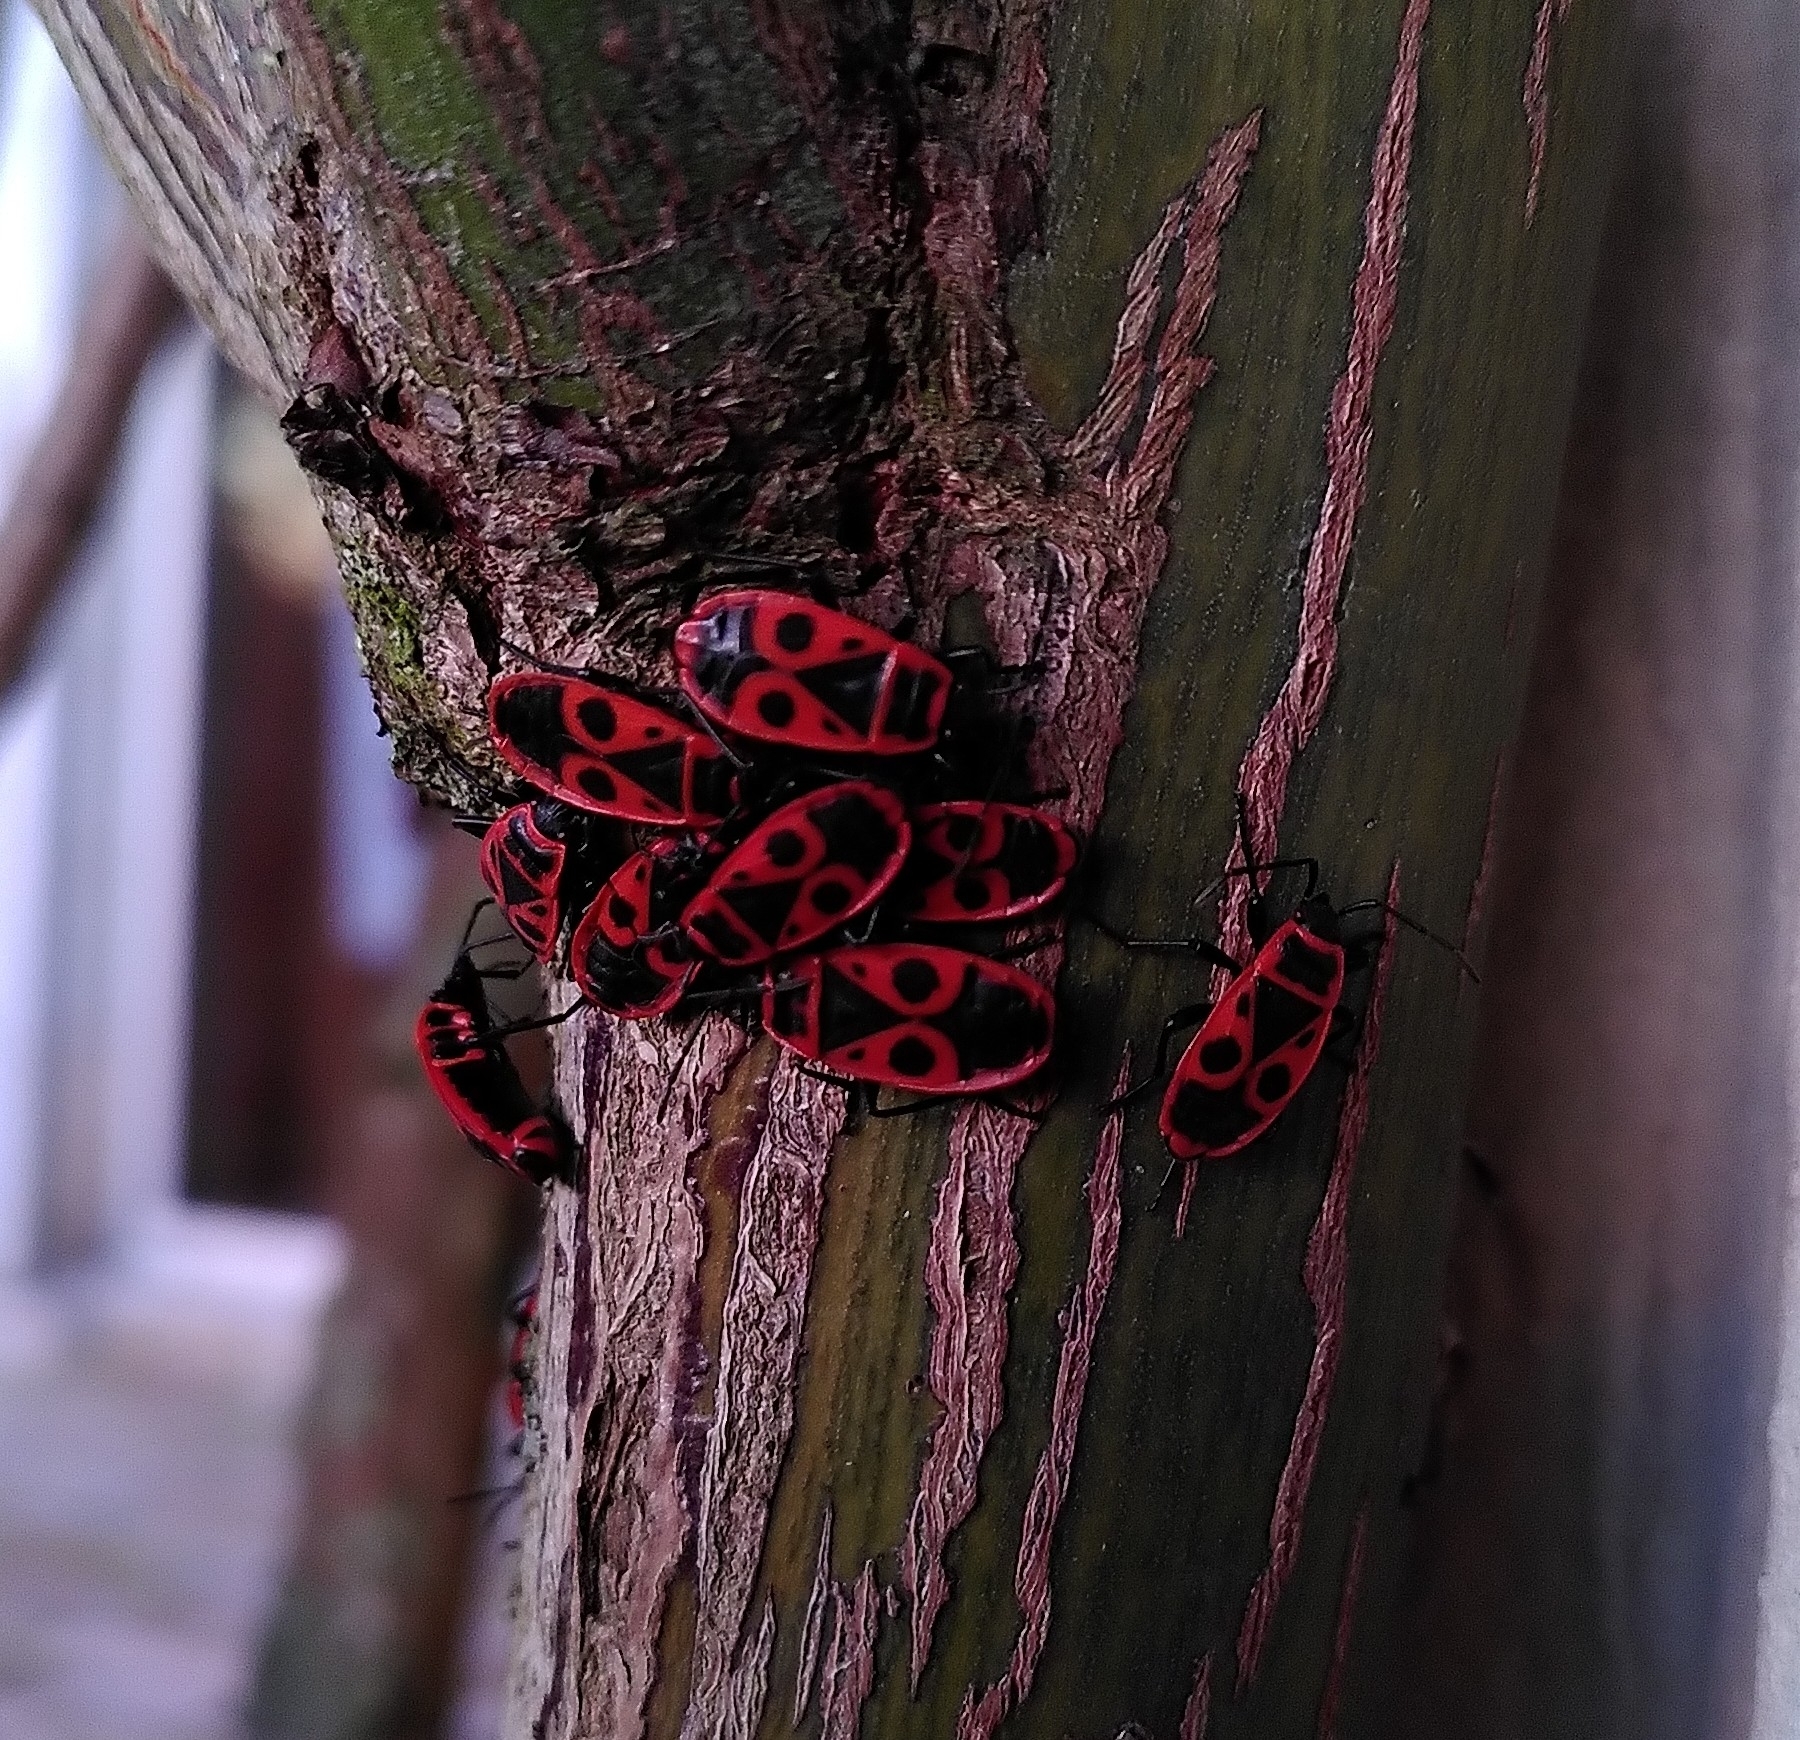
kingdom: Animalia
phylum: Arthropoda
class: Insecta
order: Hemiptera
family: Pyrrhocoridae
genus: Pyrrhocoris
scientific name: Pyrrhocoris apterus
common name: Firebug
